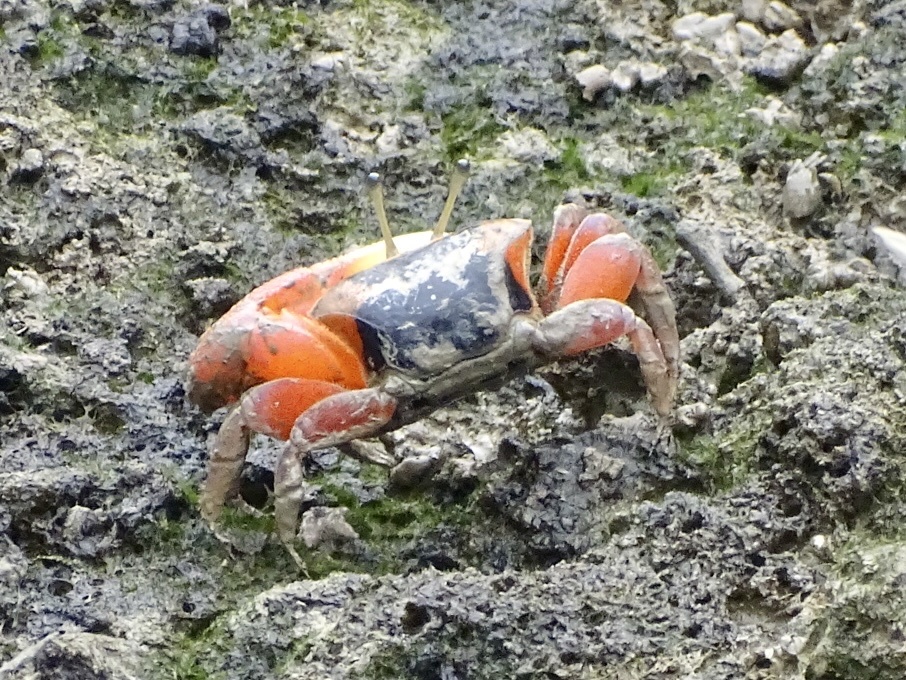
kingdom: Animalia
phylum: Arthropoda
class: Malacostraca
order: Decapoda
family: Ocypodidae
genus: Tubuca
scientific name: Tubuca arcuata
